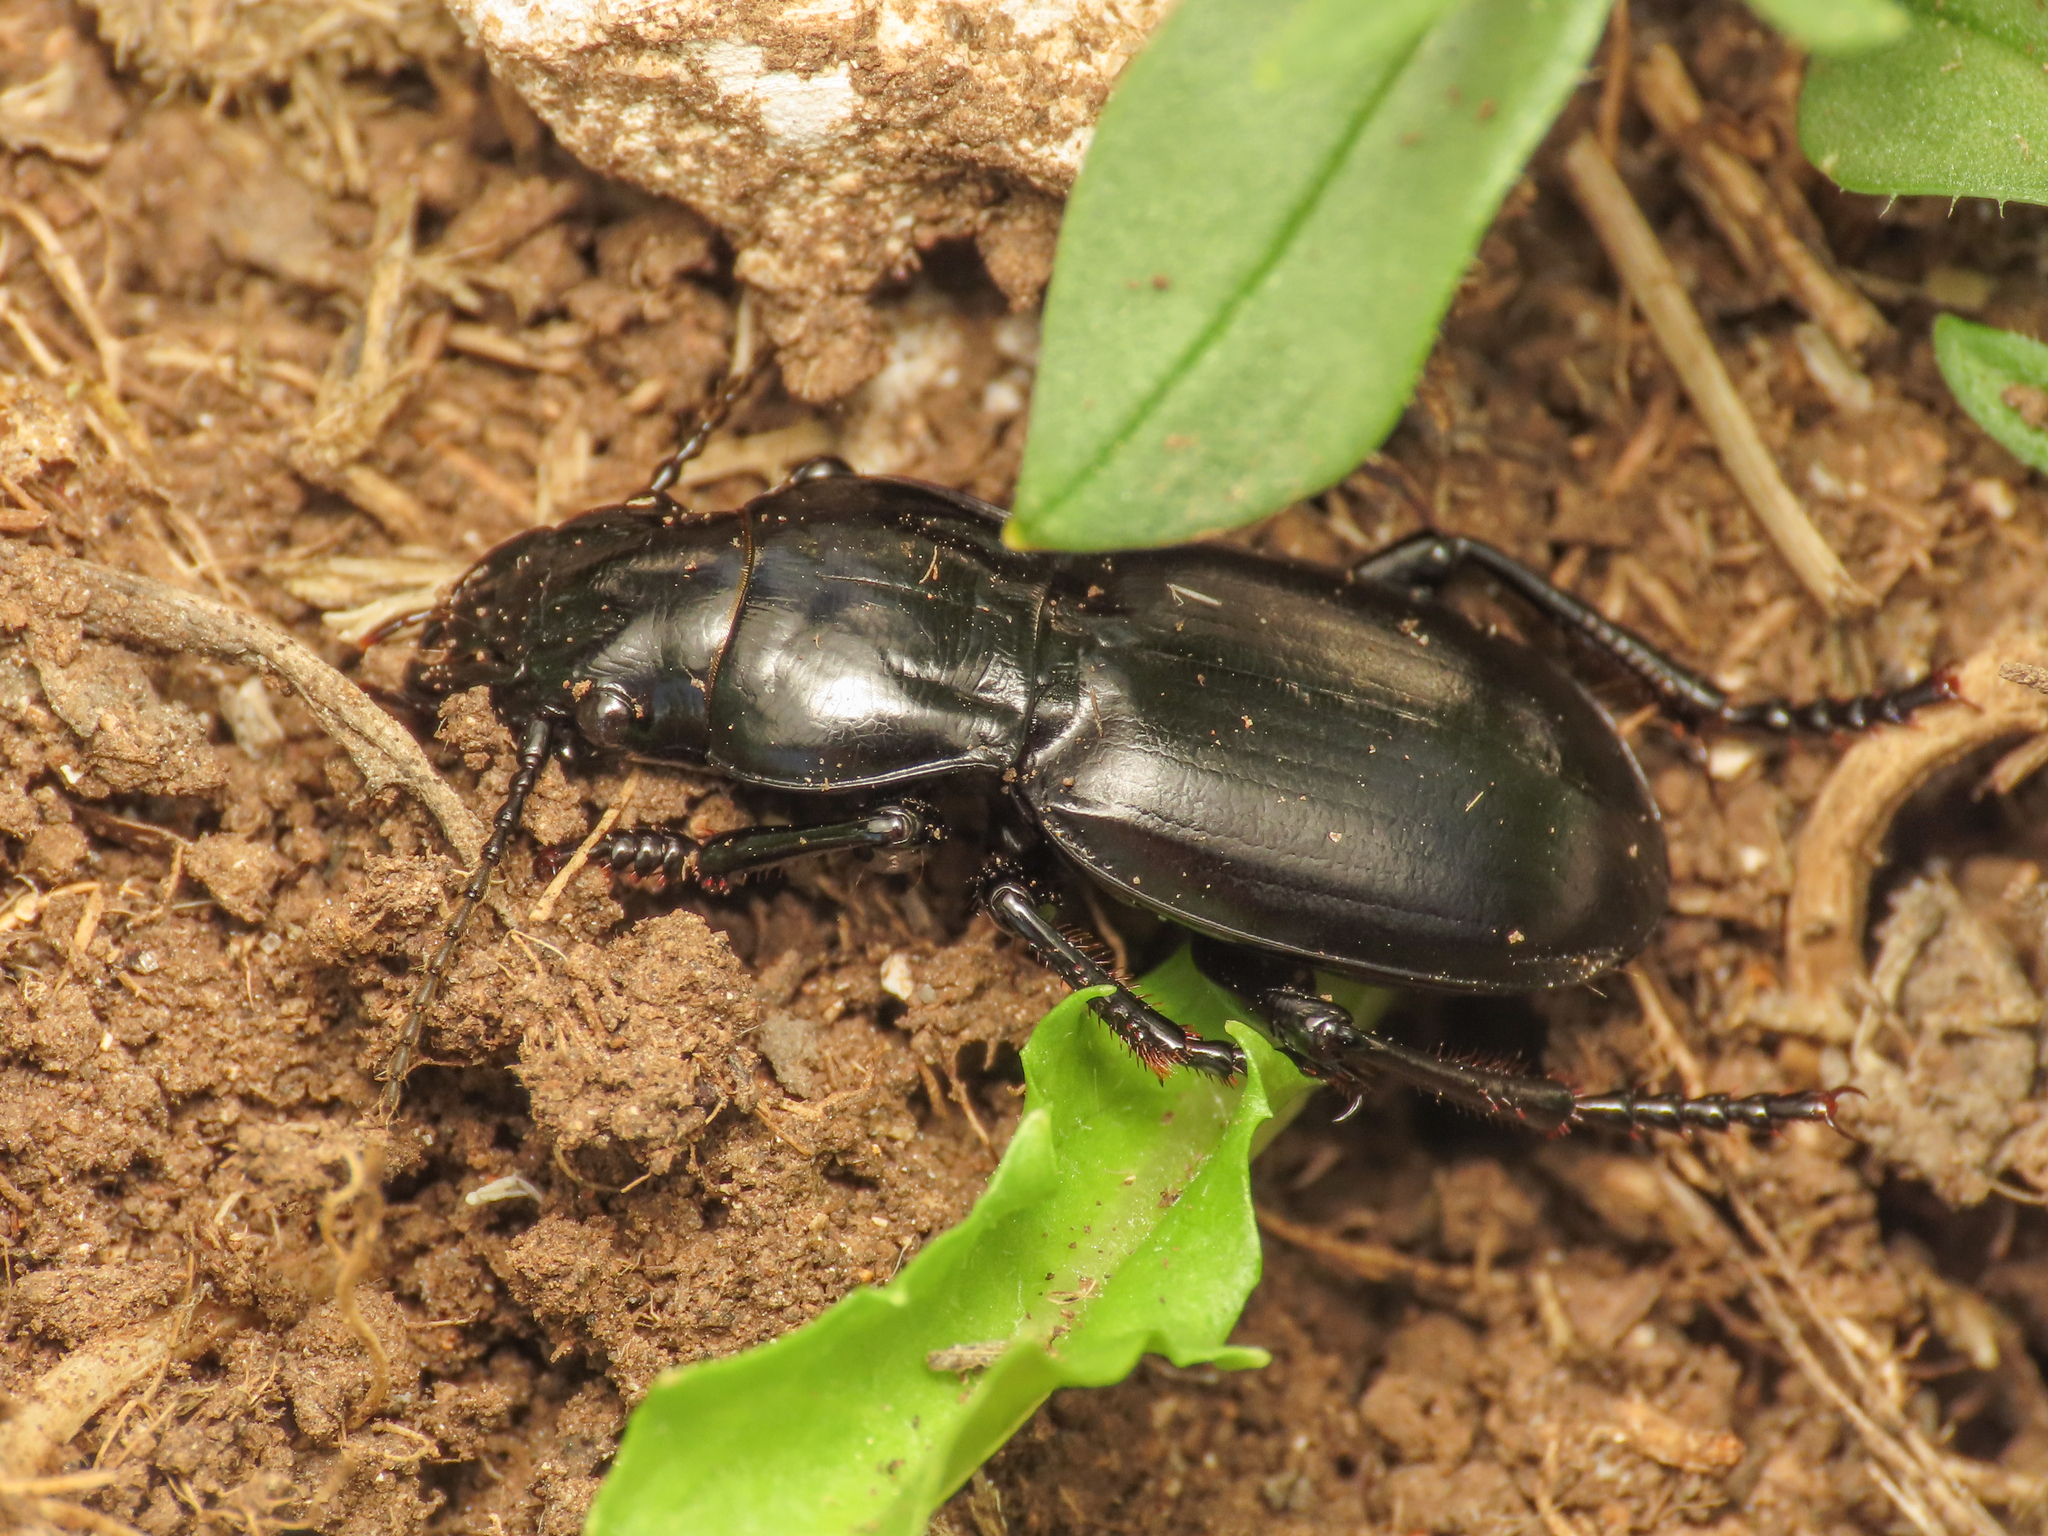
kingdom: Animalia
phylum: Arthropoda
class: Insecta
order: Coleoptera
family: Carabidae
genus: Percus
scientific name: Percus dejeanii
